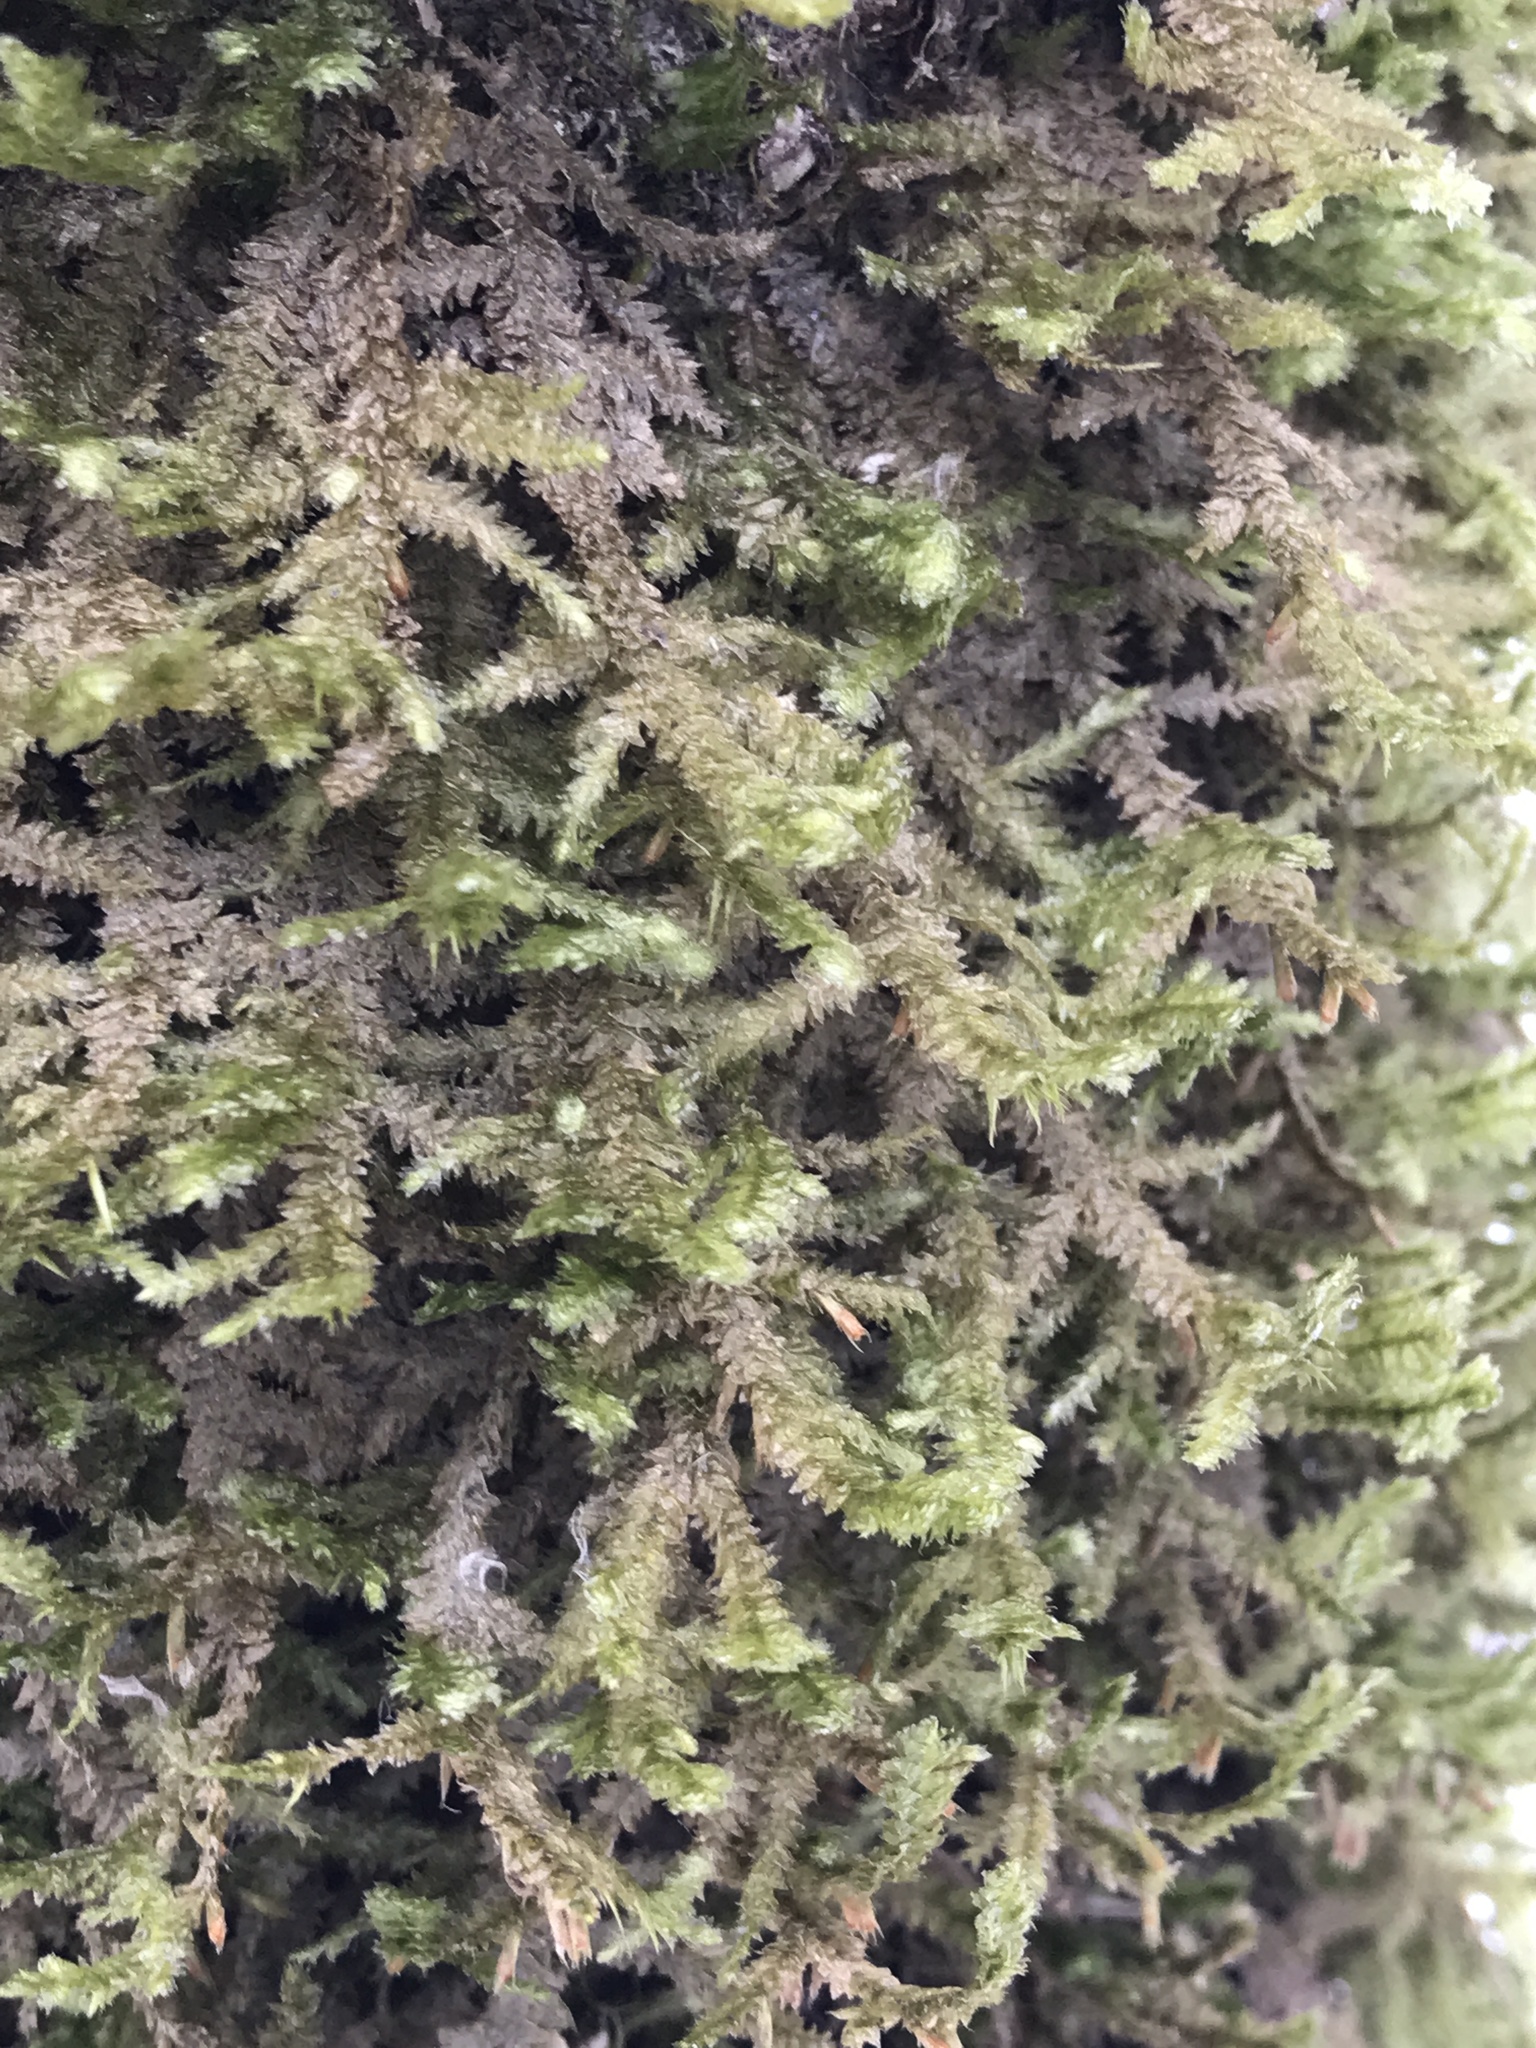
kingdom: Plantae
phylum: Bryophyta
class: Bryopsida
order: Hypnales
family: Neckeraceae
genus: Neckera
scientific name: Neckera pennata
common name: Feathery neckera
